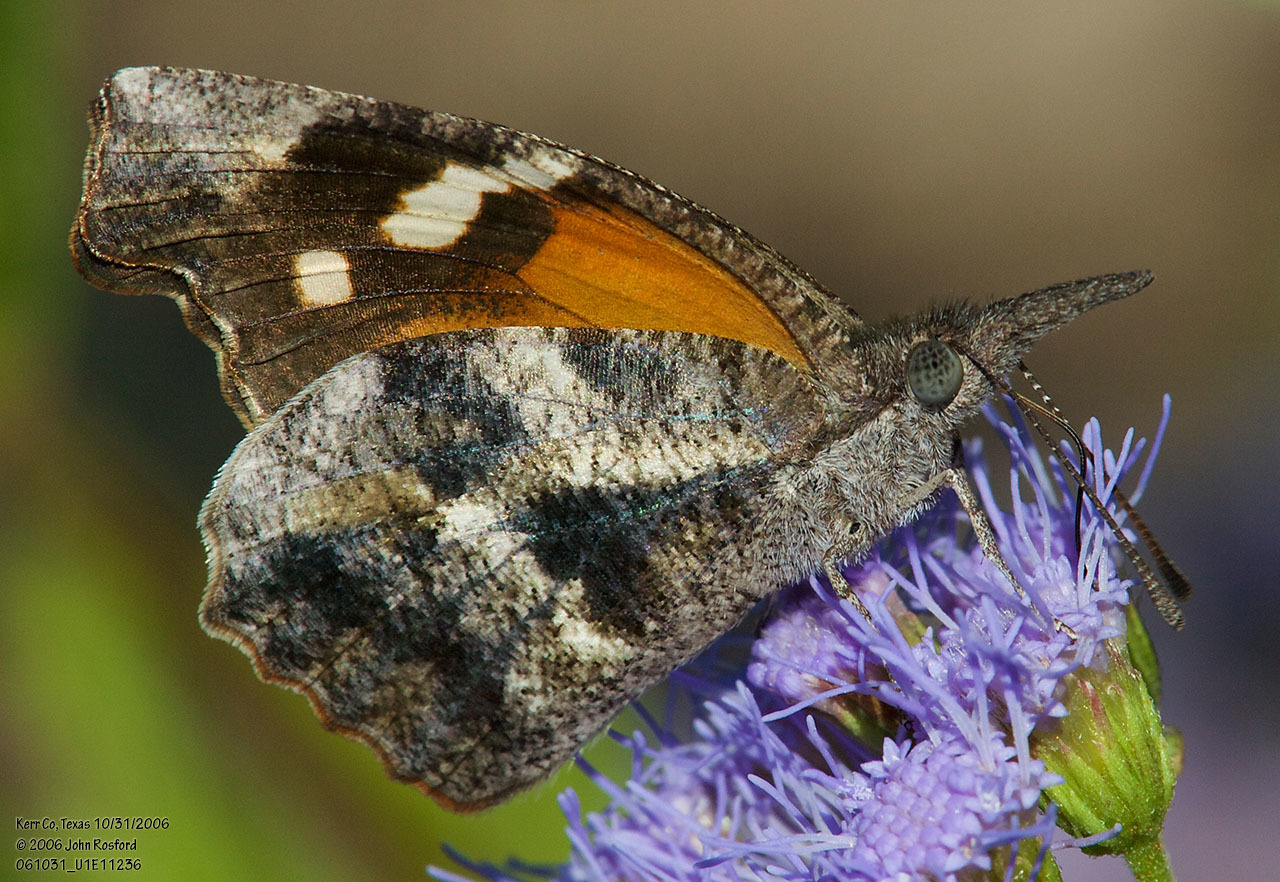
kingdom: Animalia
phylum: Arthropoda
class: Insecta
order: Lepidoptera
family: Nymphalidae
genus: Libytheana
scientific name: Libytheana carinenta
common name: American snout
